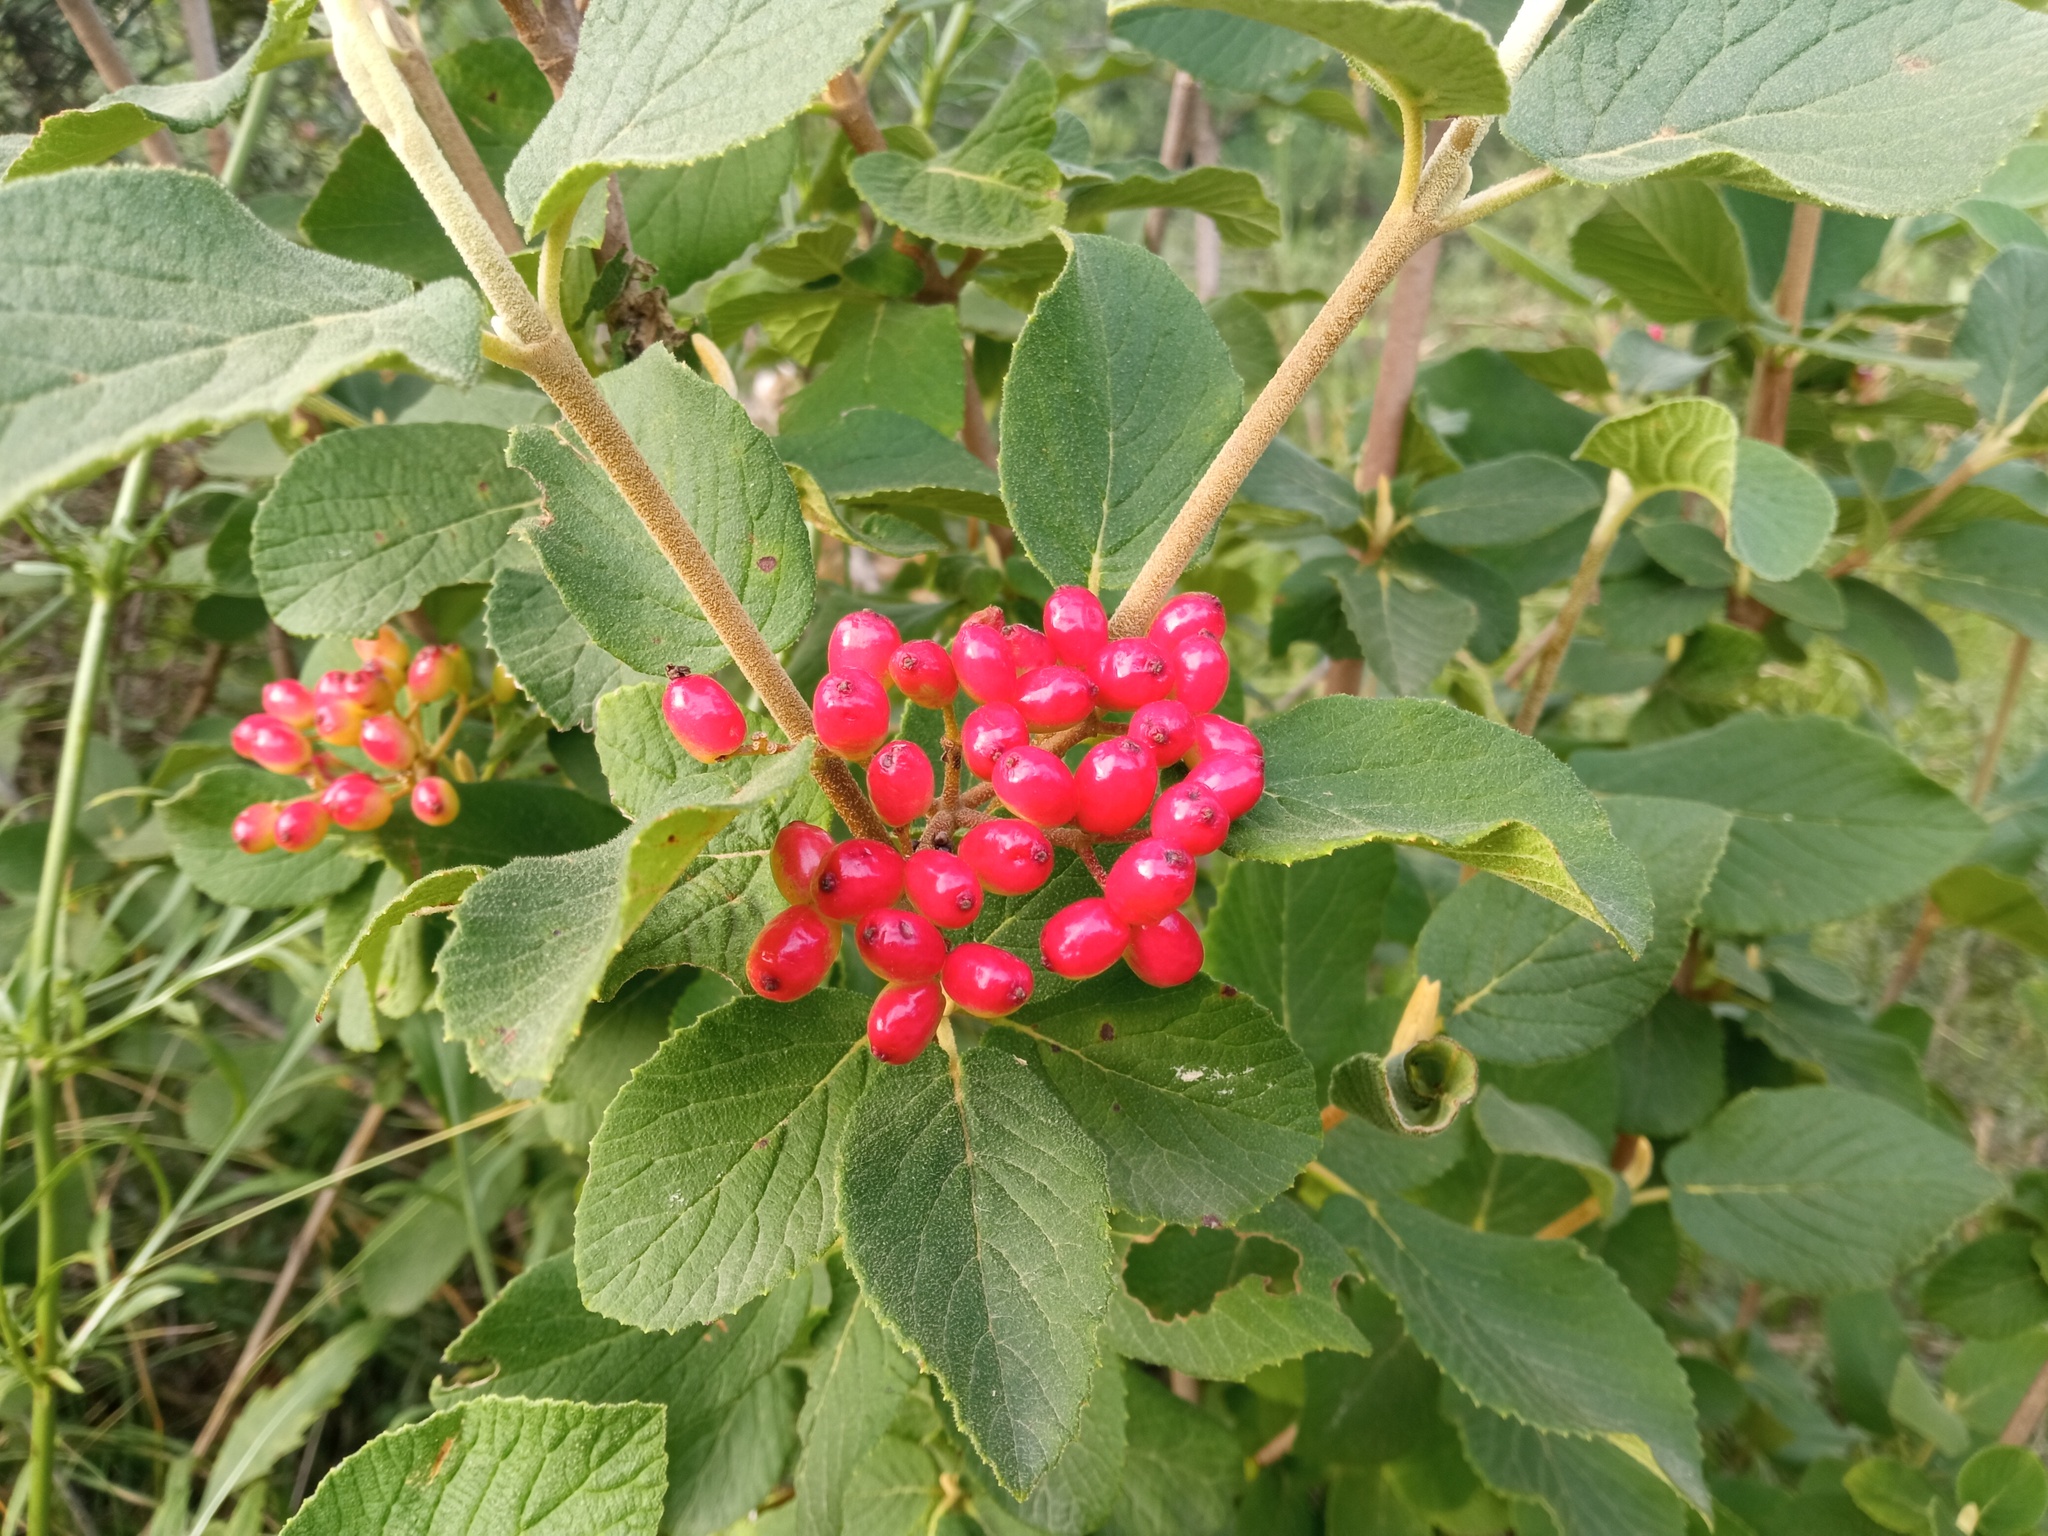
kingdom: Plantae
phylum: Tracheophyta
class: Magnoliopsida
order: Dipsacales
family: Viburnaceae
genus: Viburnum
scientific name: Viburnum lantana
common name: Wayfaring tree
